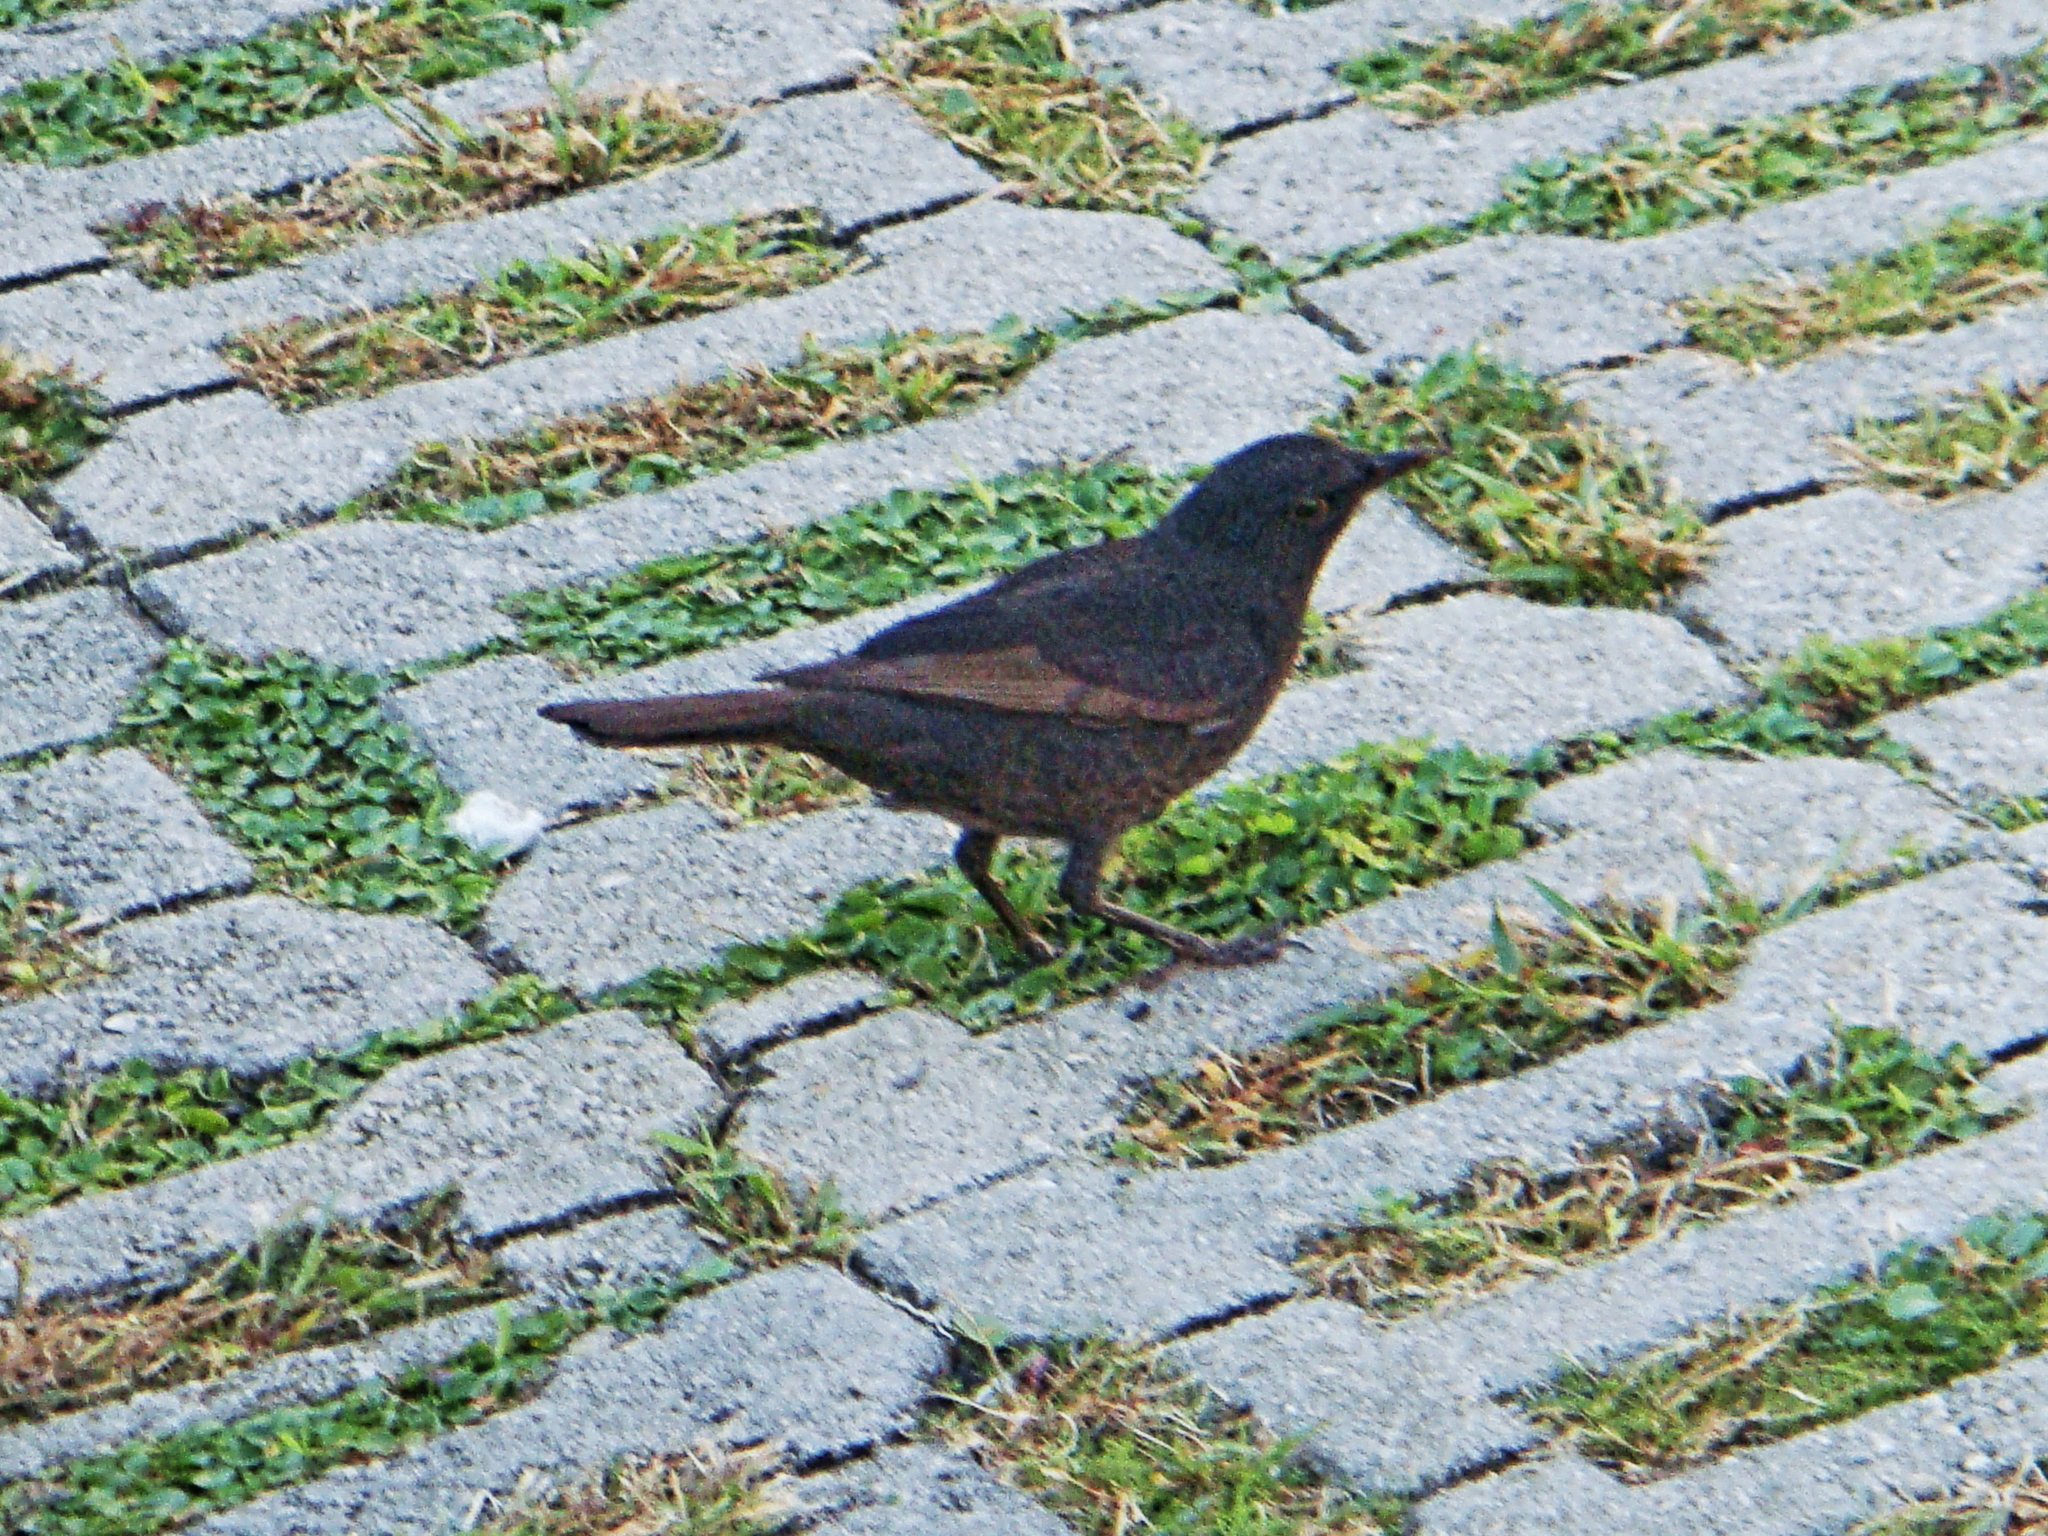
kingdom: Animalia
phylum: Chordata
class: Aves
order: Passeriformes
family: Turdidae
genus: Turdus
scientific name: Turdus merula
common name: Common blackbird
